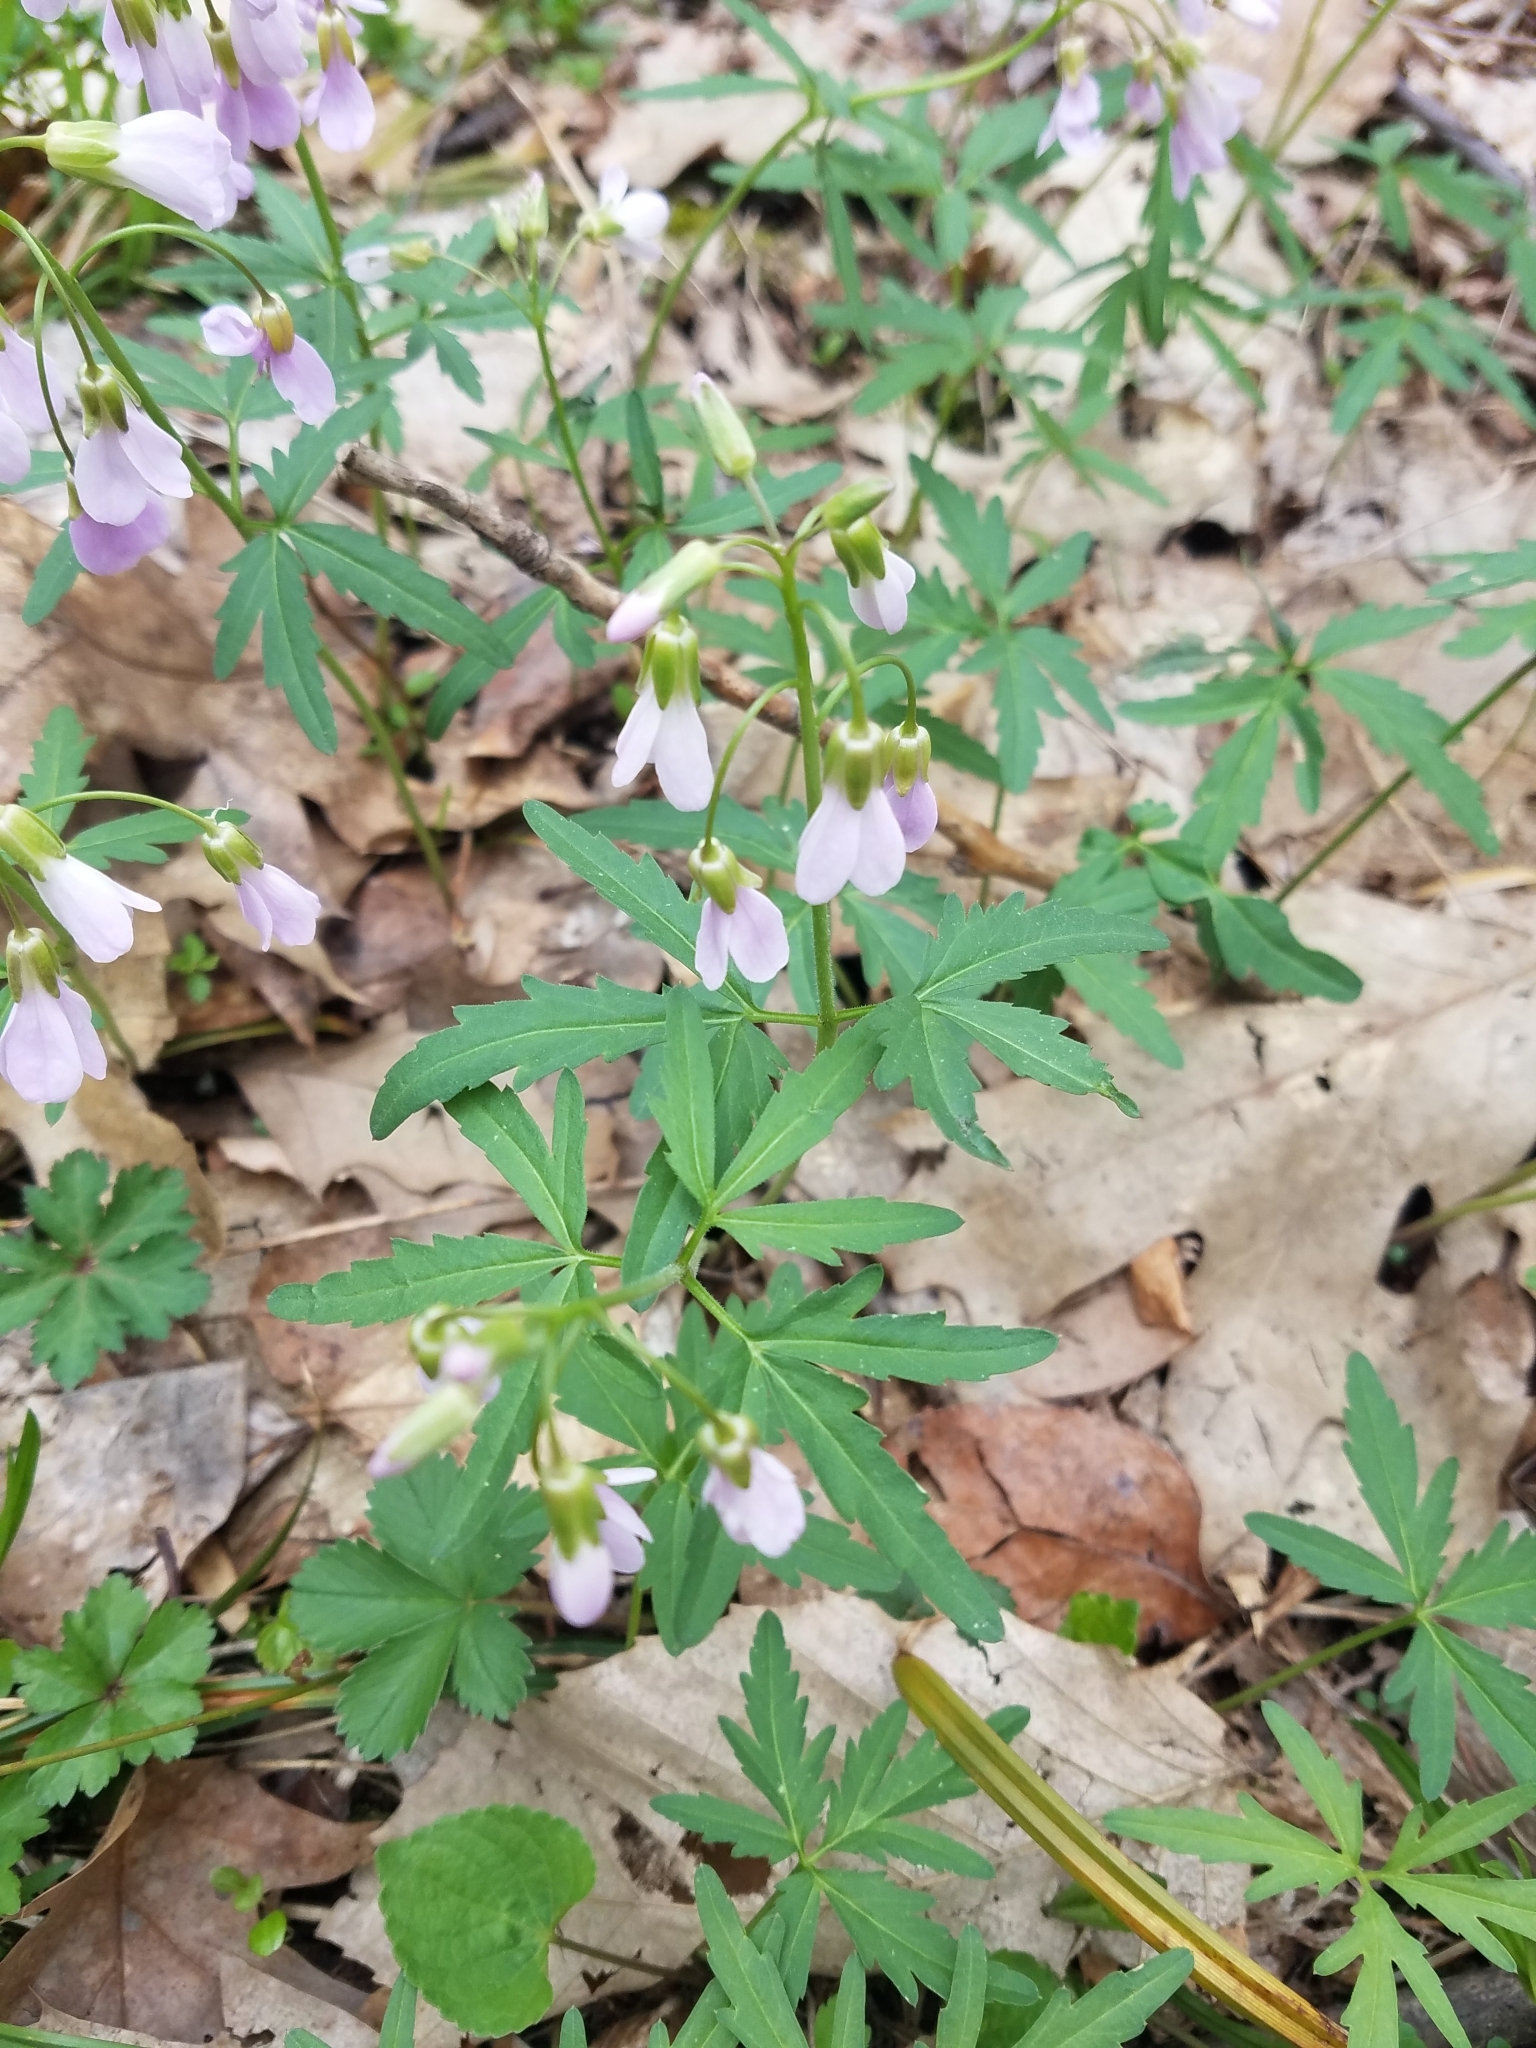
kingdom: Plantae
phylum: Tracheophyta
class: Magnoliopsida
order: Brassicales
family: Brassicaceae
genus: Cardamine
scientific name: Cardamine concatenata
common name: Cut-leaf toothcup
